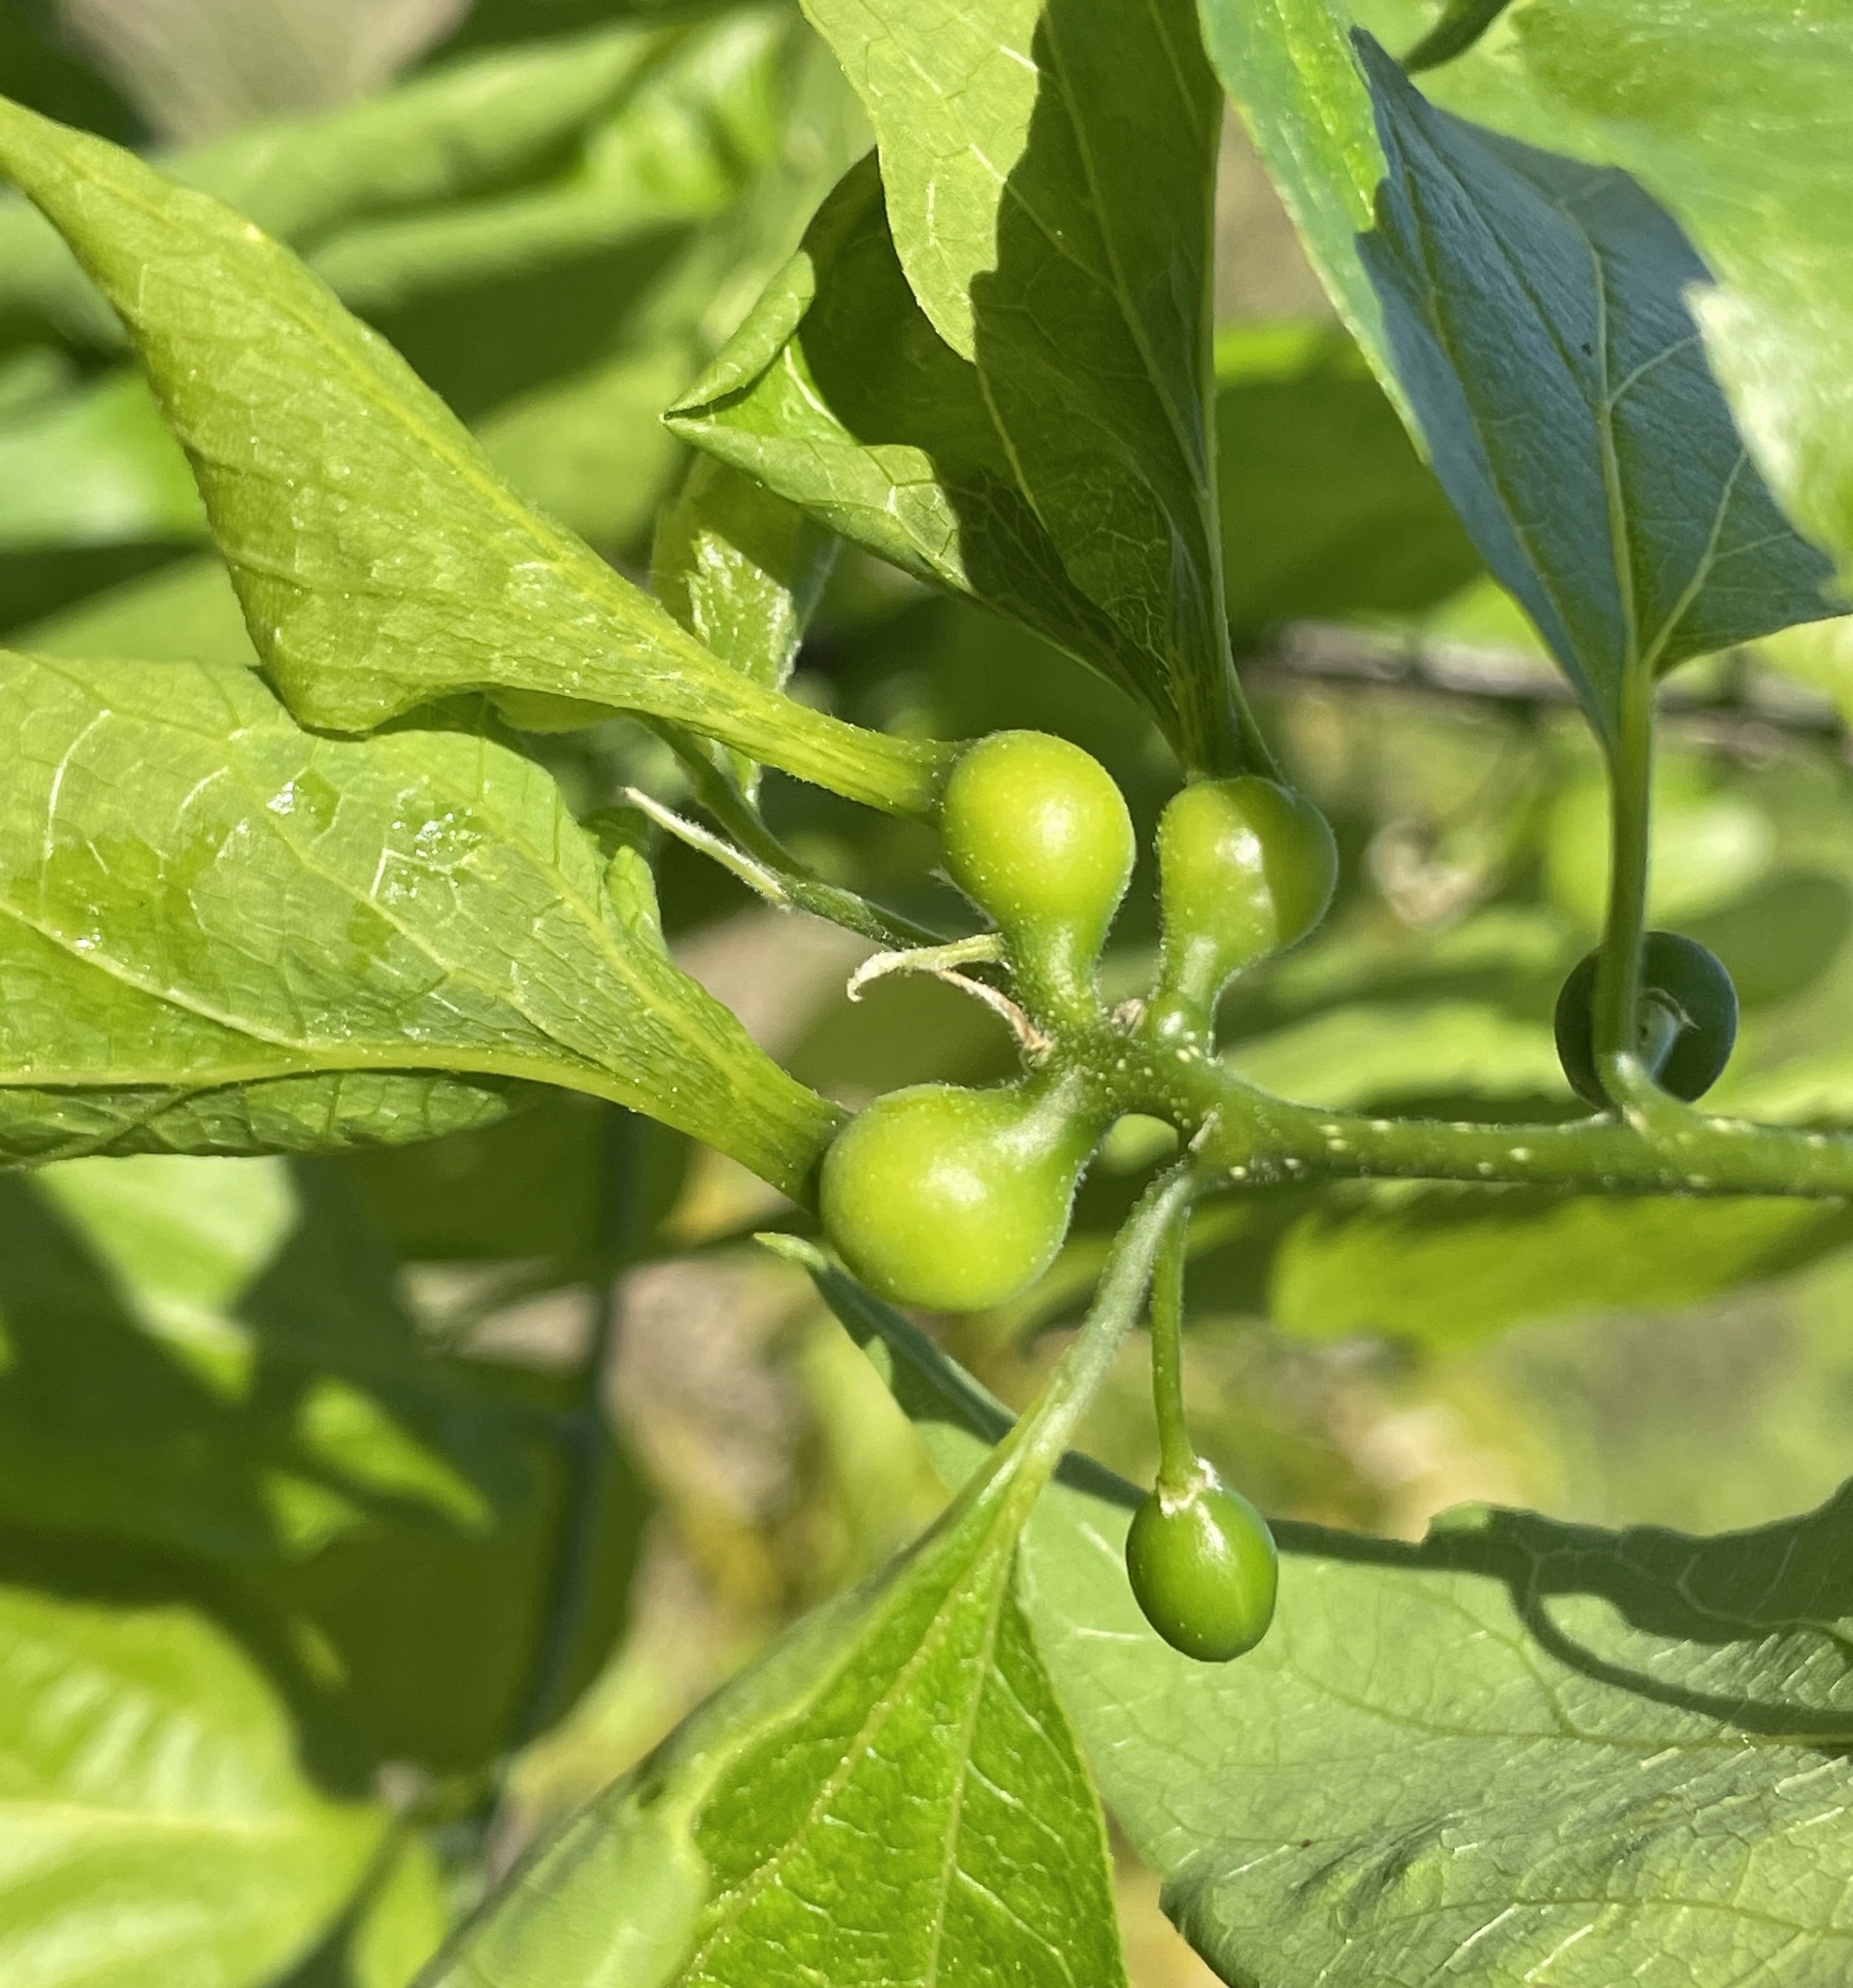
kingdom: Animalia
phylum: Arthropoda
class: Insecta
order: Hemiptera
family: Aphalaridae
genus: Pachypsylla
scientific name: Pachypsylla venusta
